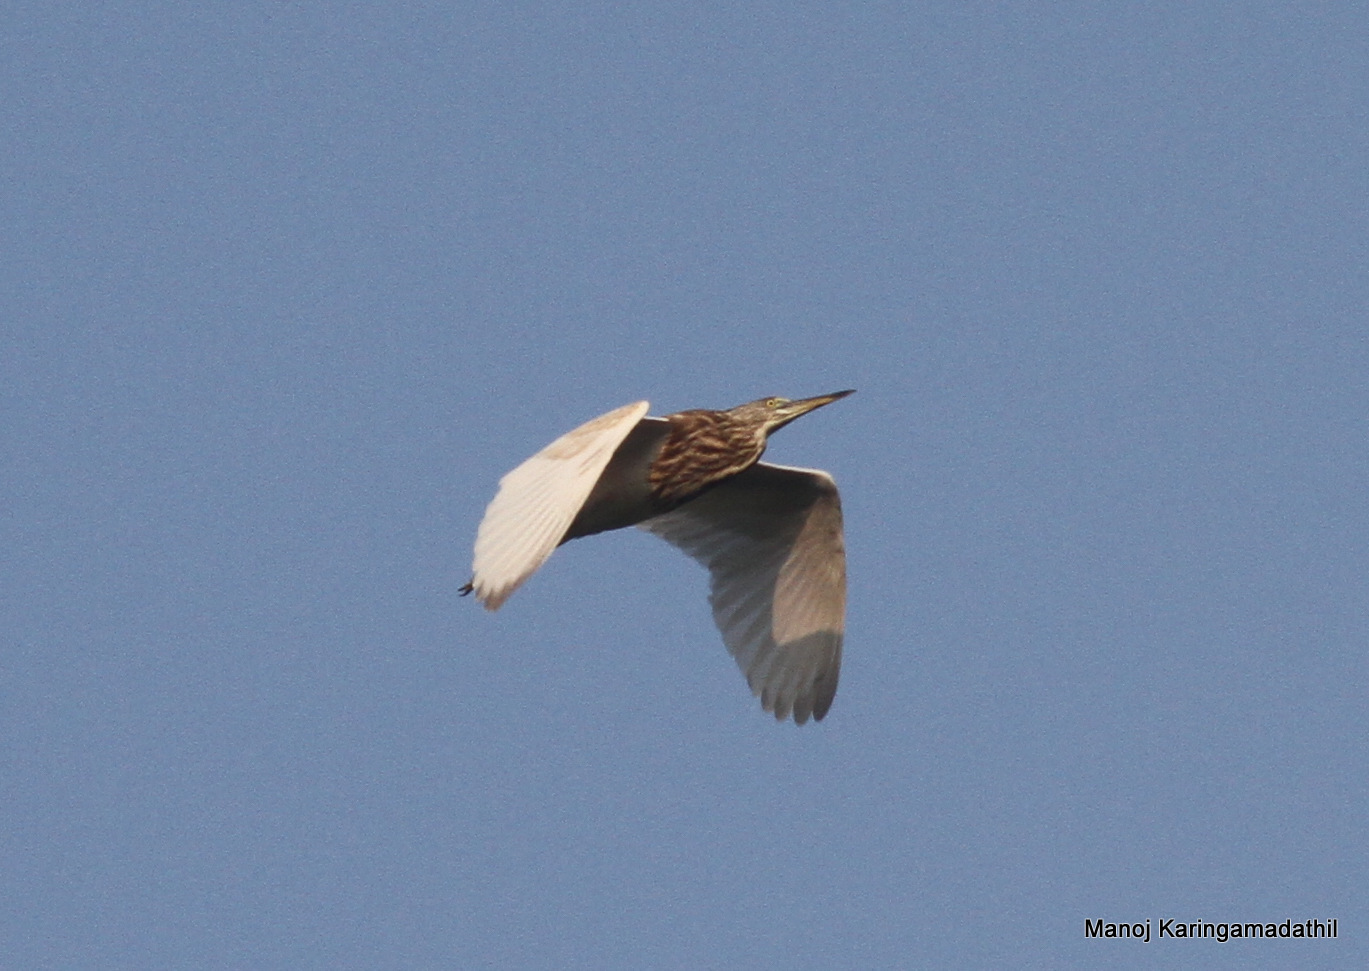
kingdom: Animalia
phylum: Chordata
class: Aves
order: Pelecaniformes
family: Ardeidae
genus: Ardeola
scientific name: Ardeola grayii
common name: Indian pond heron
